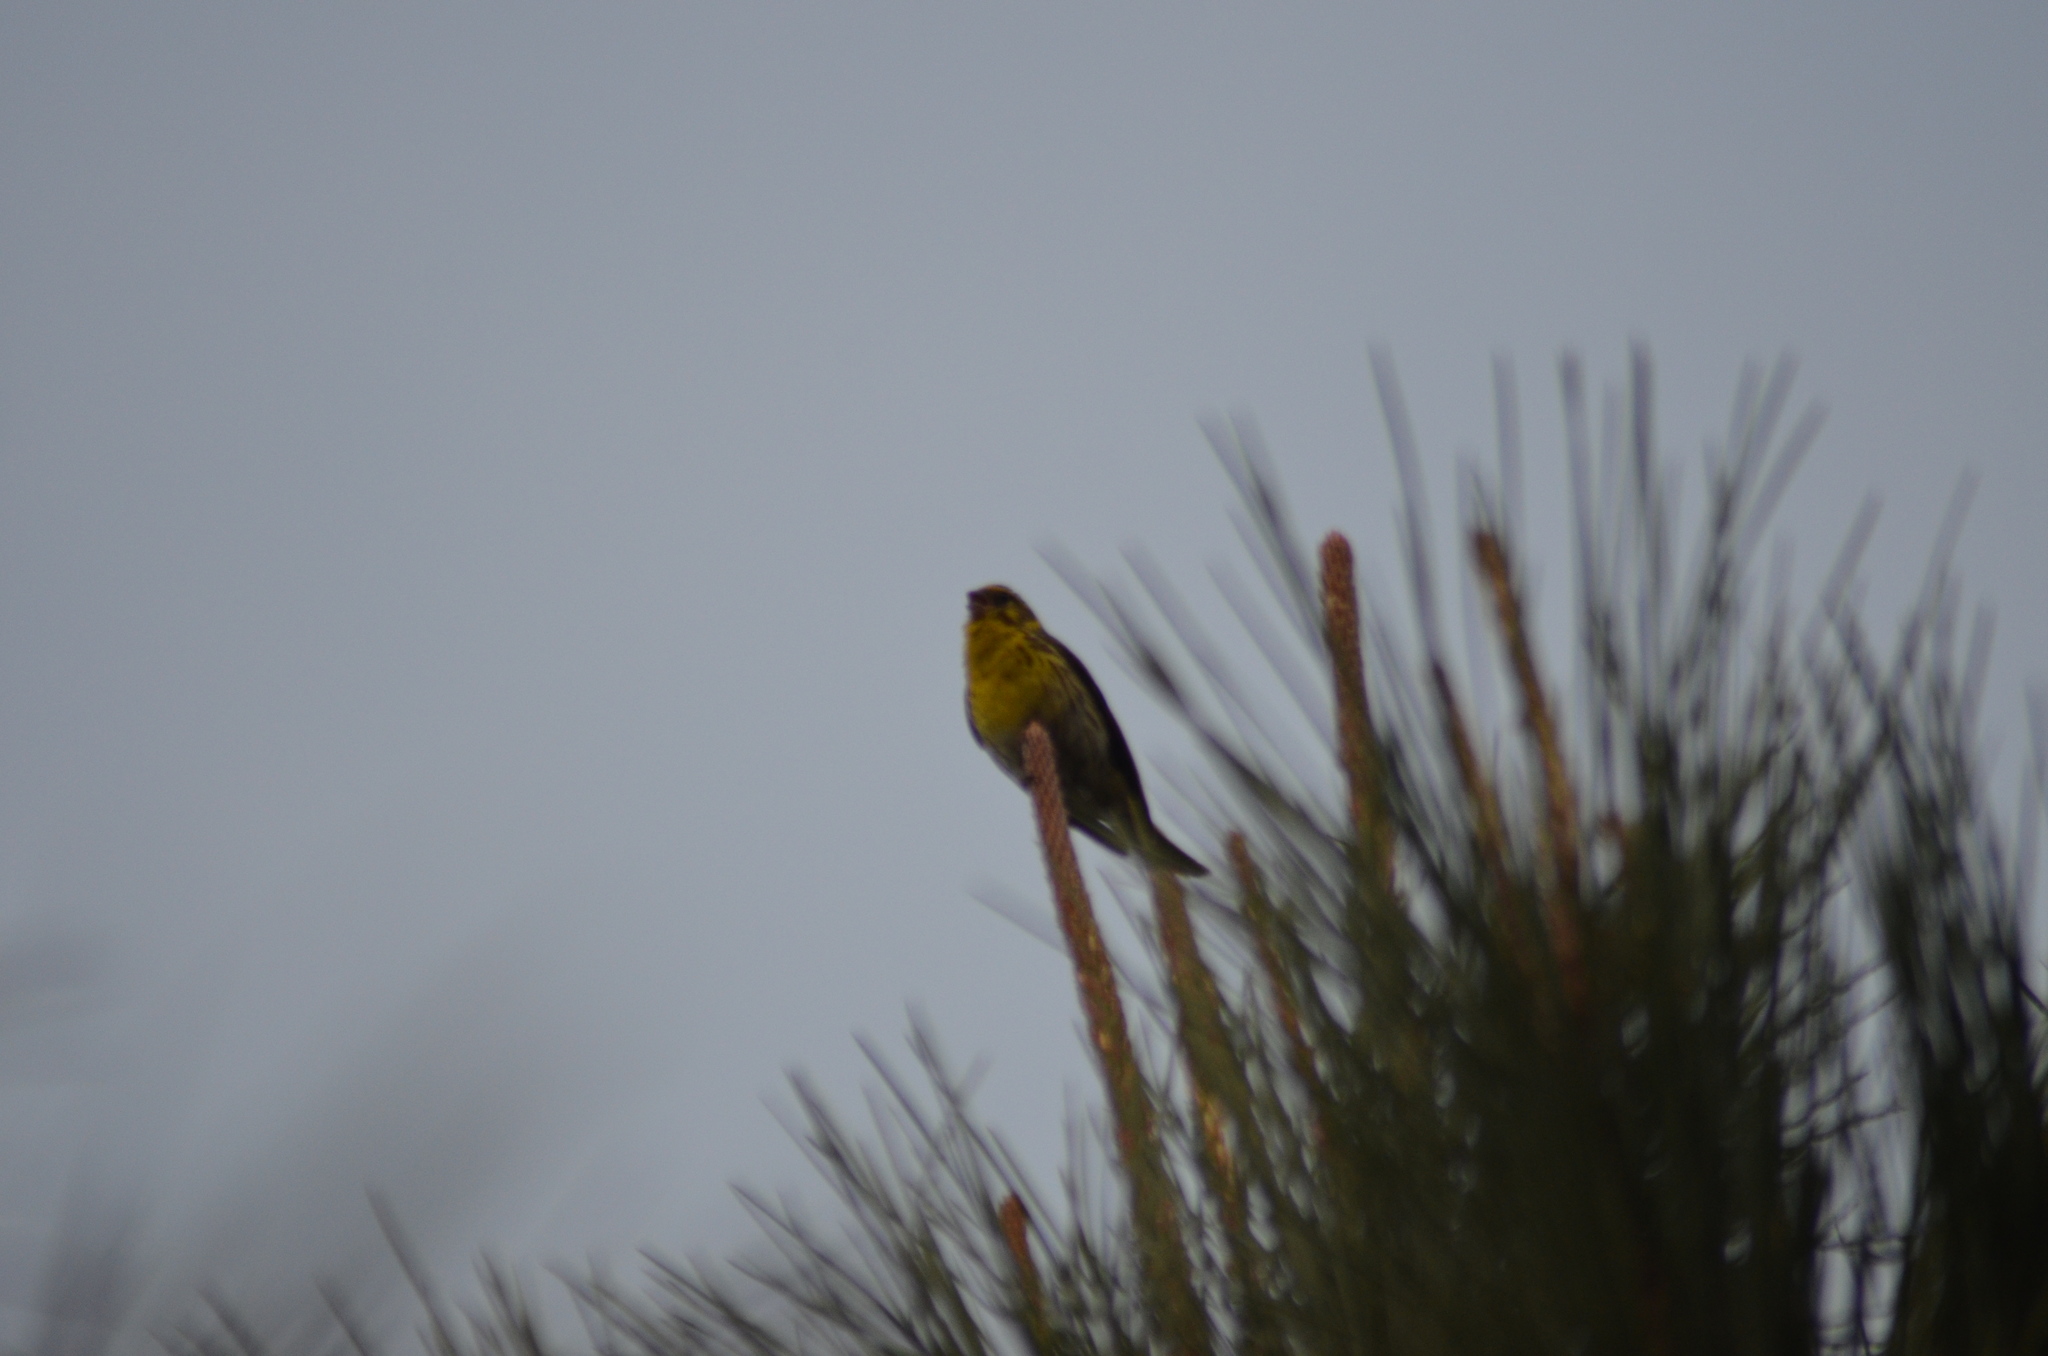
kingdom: Animalia
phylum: Chordata
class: Aves
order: Passeriformes
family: Fringillidae
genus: Serinus
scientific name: Serinus serinus
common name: European serin
